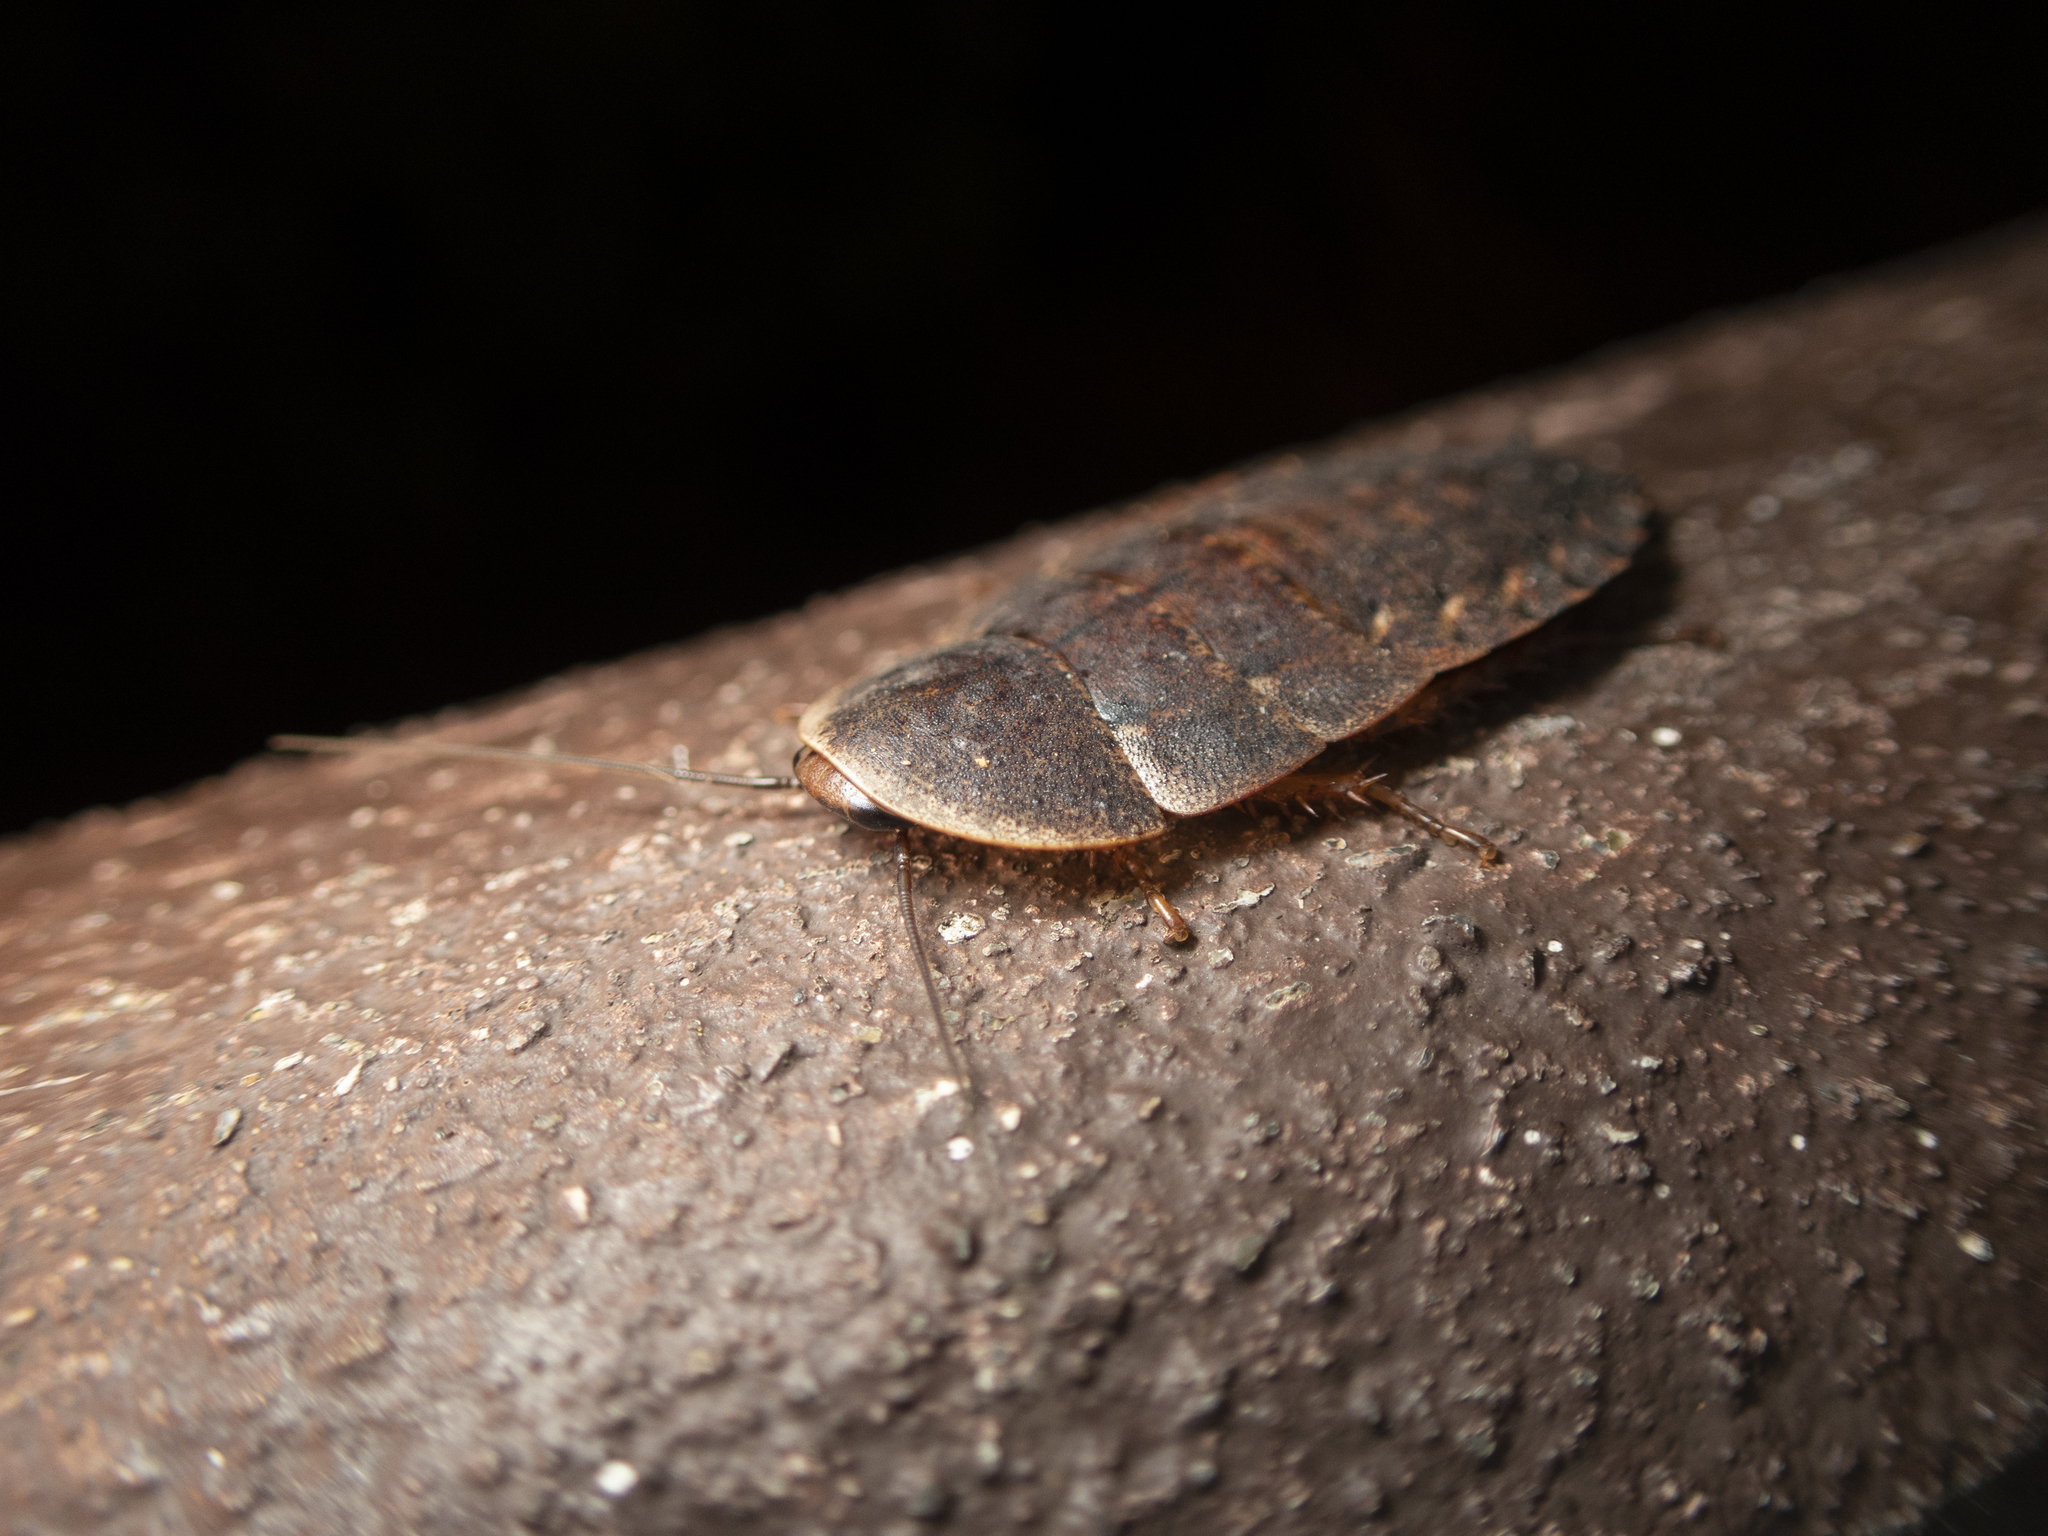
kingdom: Animalia
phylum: Arthropoda
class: Insecta
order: Blattodea
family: Blaberidae
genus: Opisthoplatia
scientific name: Opisthoplatia orientalis
